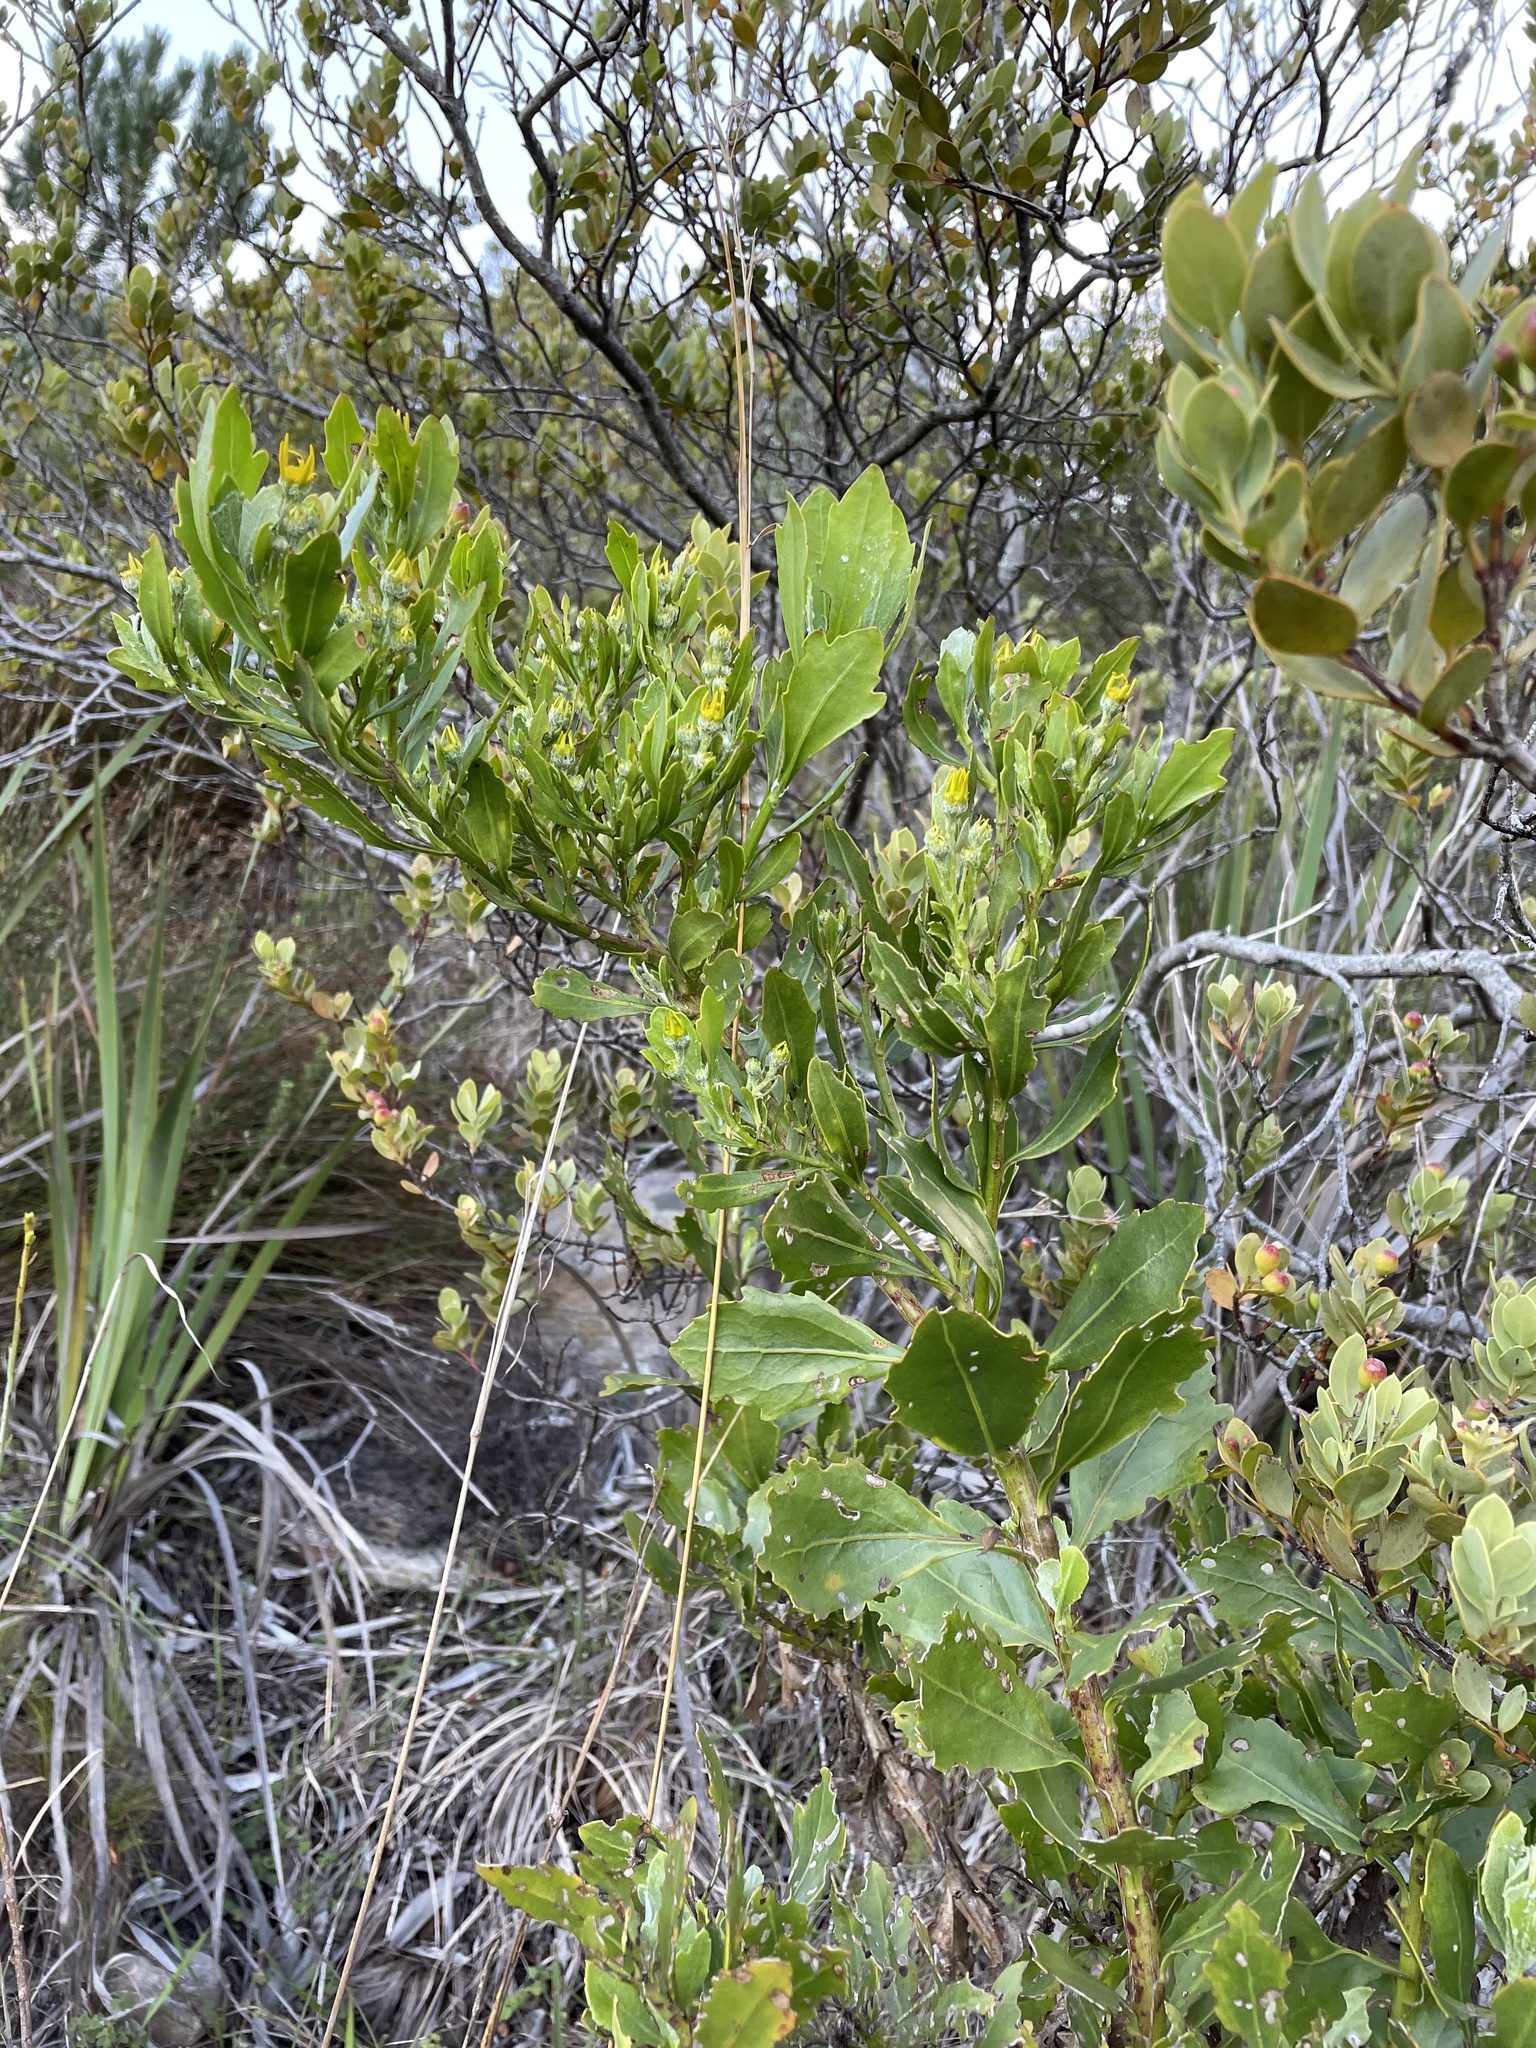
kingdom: Plantae
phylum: Tracheophyta
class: Magnoliopsida
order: Asterales
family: Asteraceae
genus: Osteospermum
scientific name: Osteospermum moniliferum
